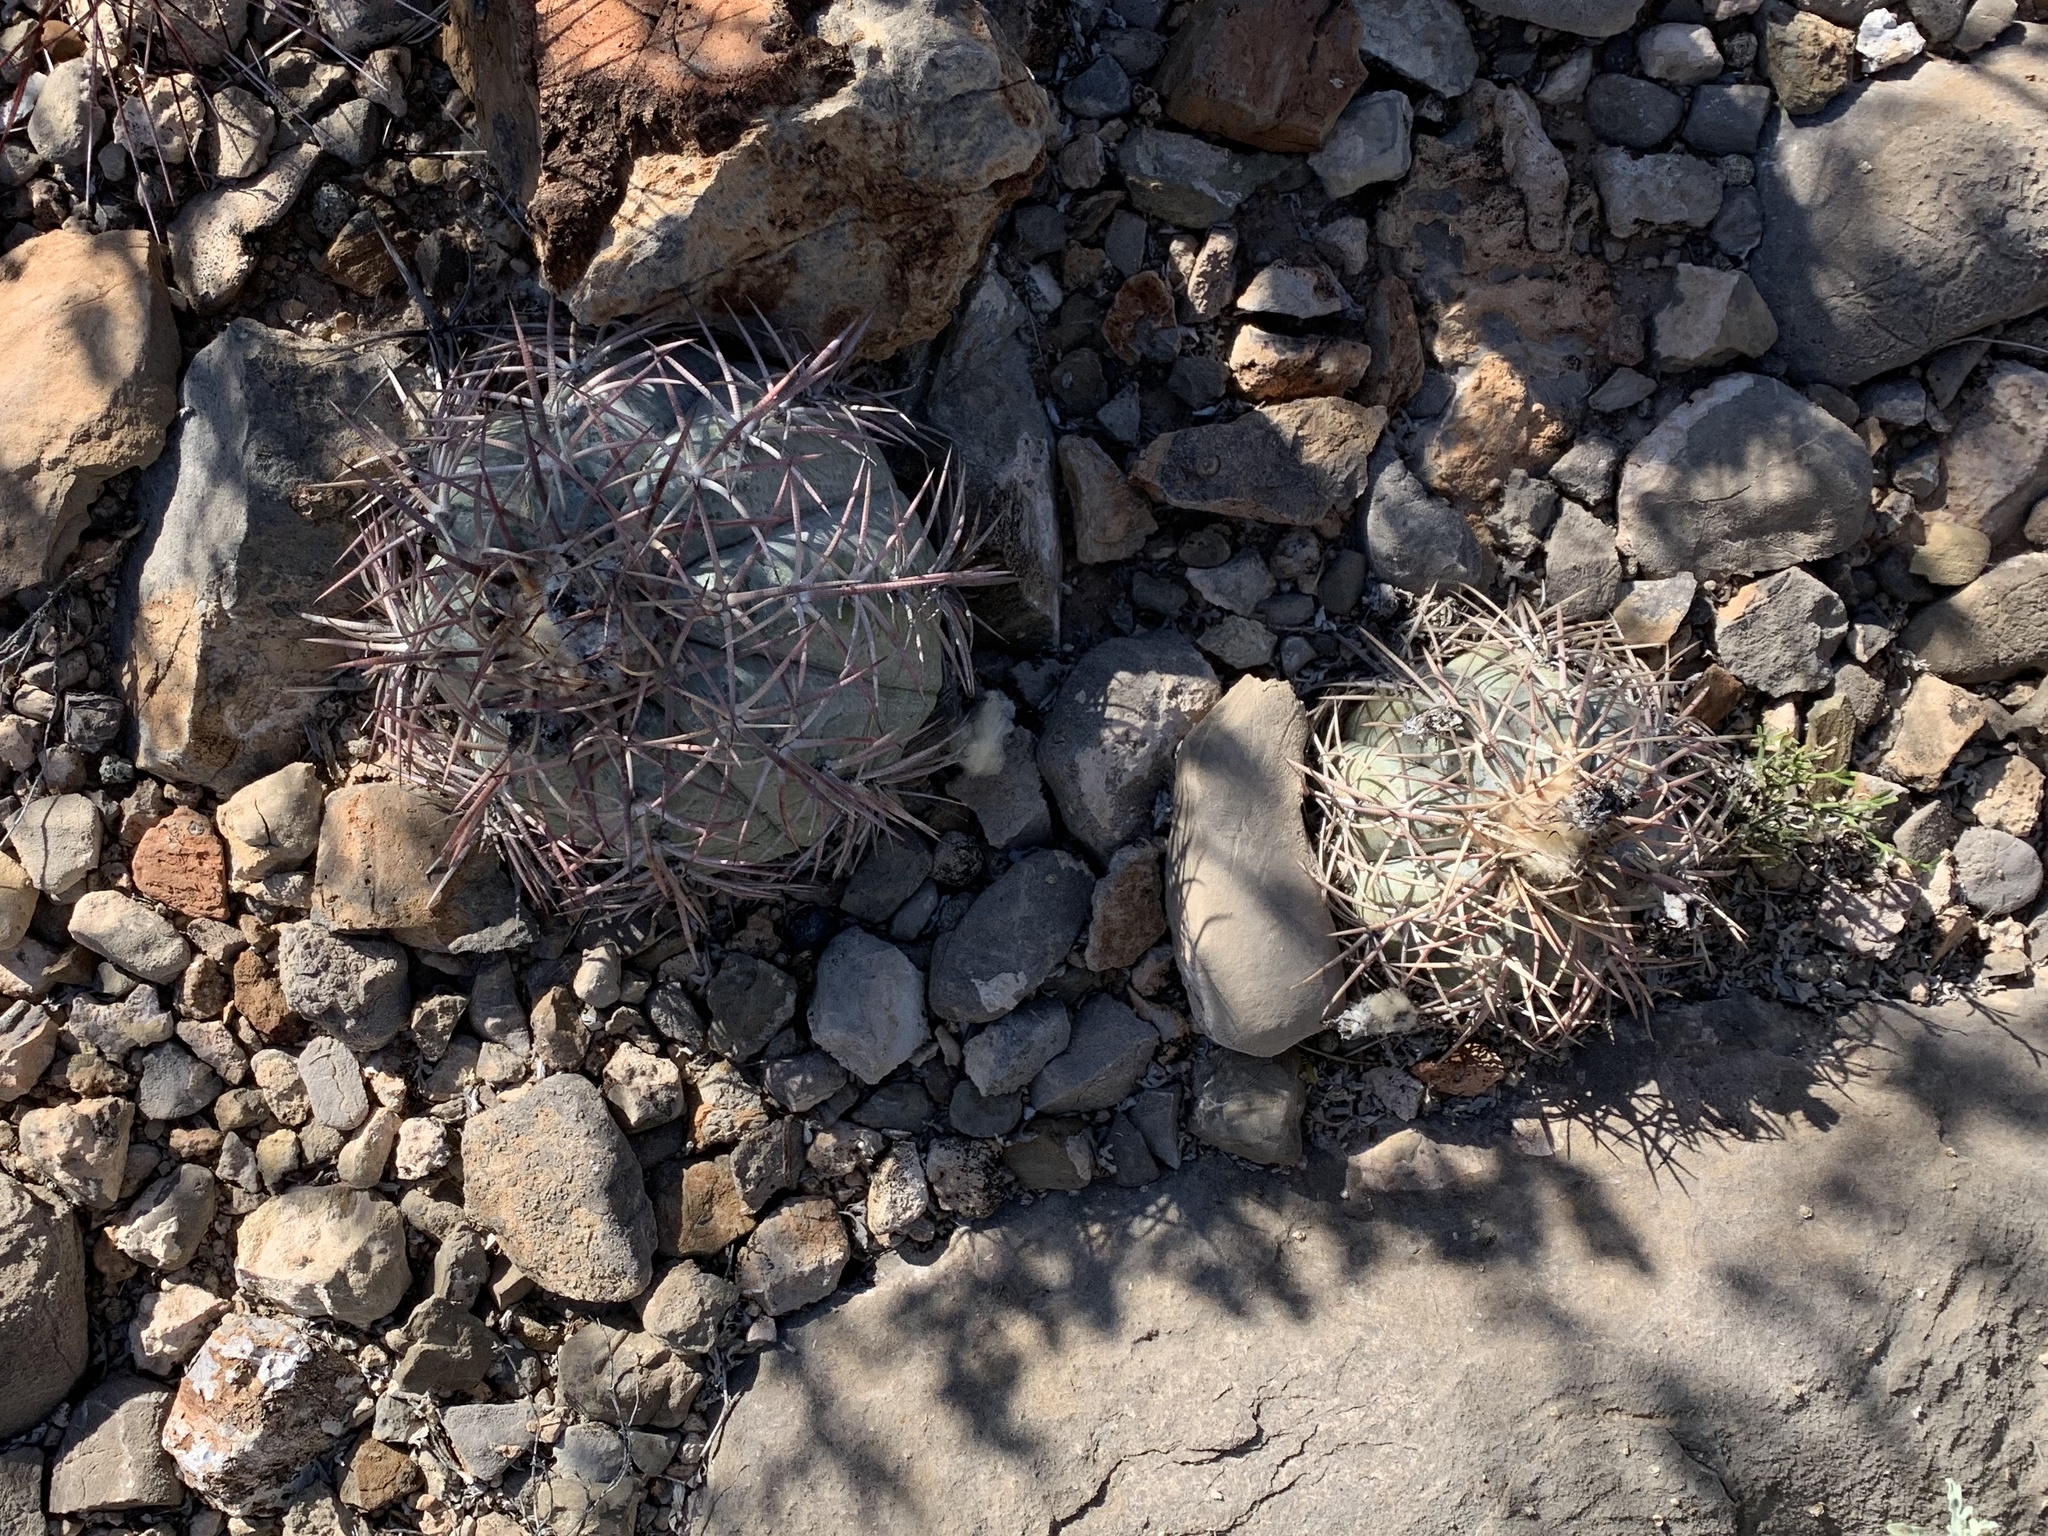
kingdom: Plantae
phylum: Tracheophyta
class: Magnoliopsida
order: Caryophyllales
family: Cactaceae
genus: Echinocactus
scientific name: Echinocactus horizonthalonius
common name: Devilshead
